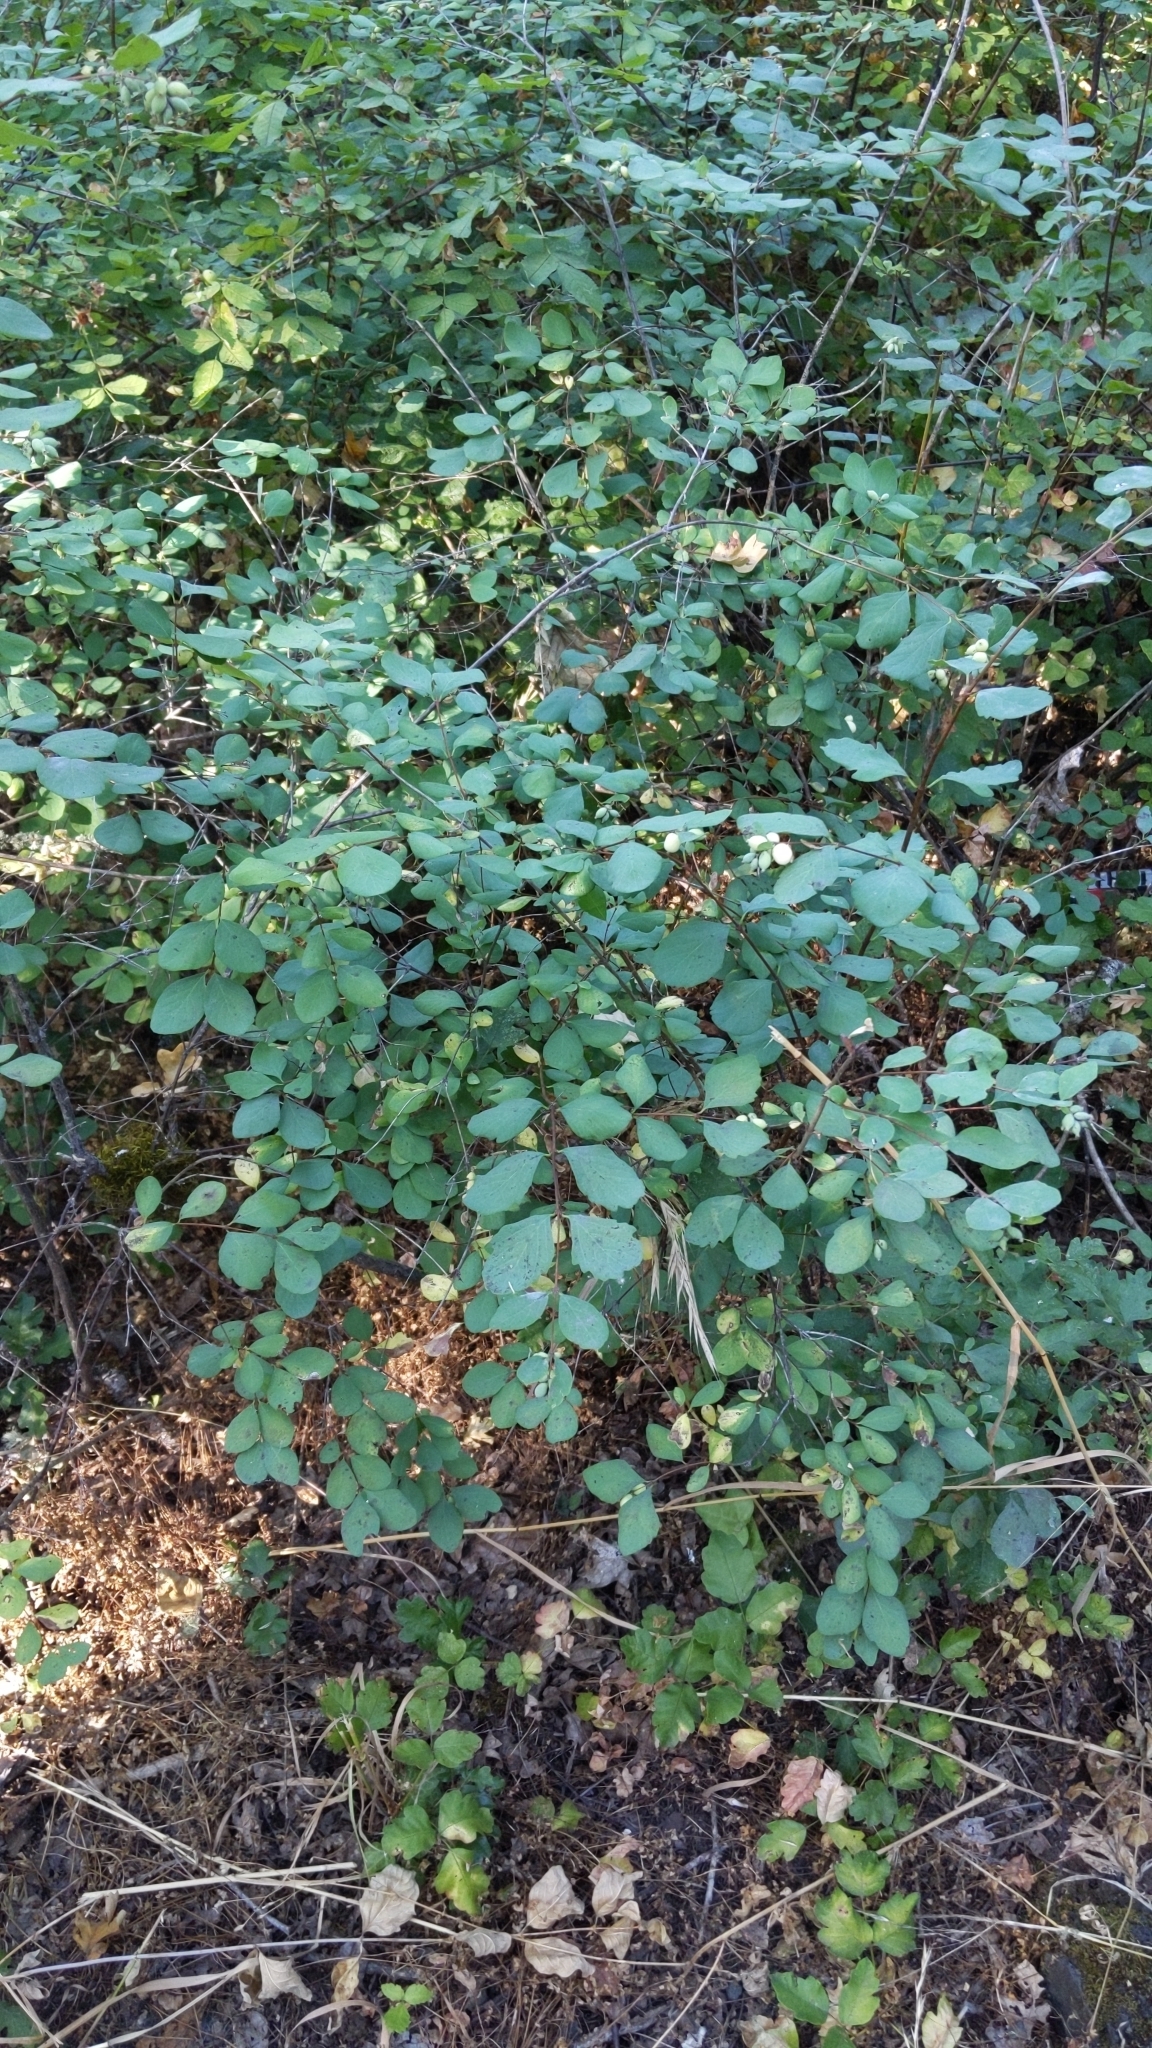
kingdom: Plantae
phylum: Tracheophyta
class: Magnoliopsida
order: Dipsacales
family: Caprifoliaceae
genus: Symphoricarpos
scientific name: Symphoricarpos albus
